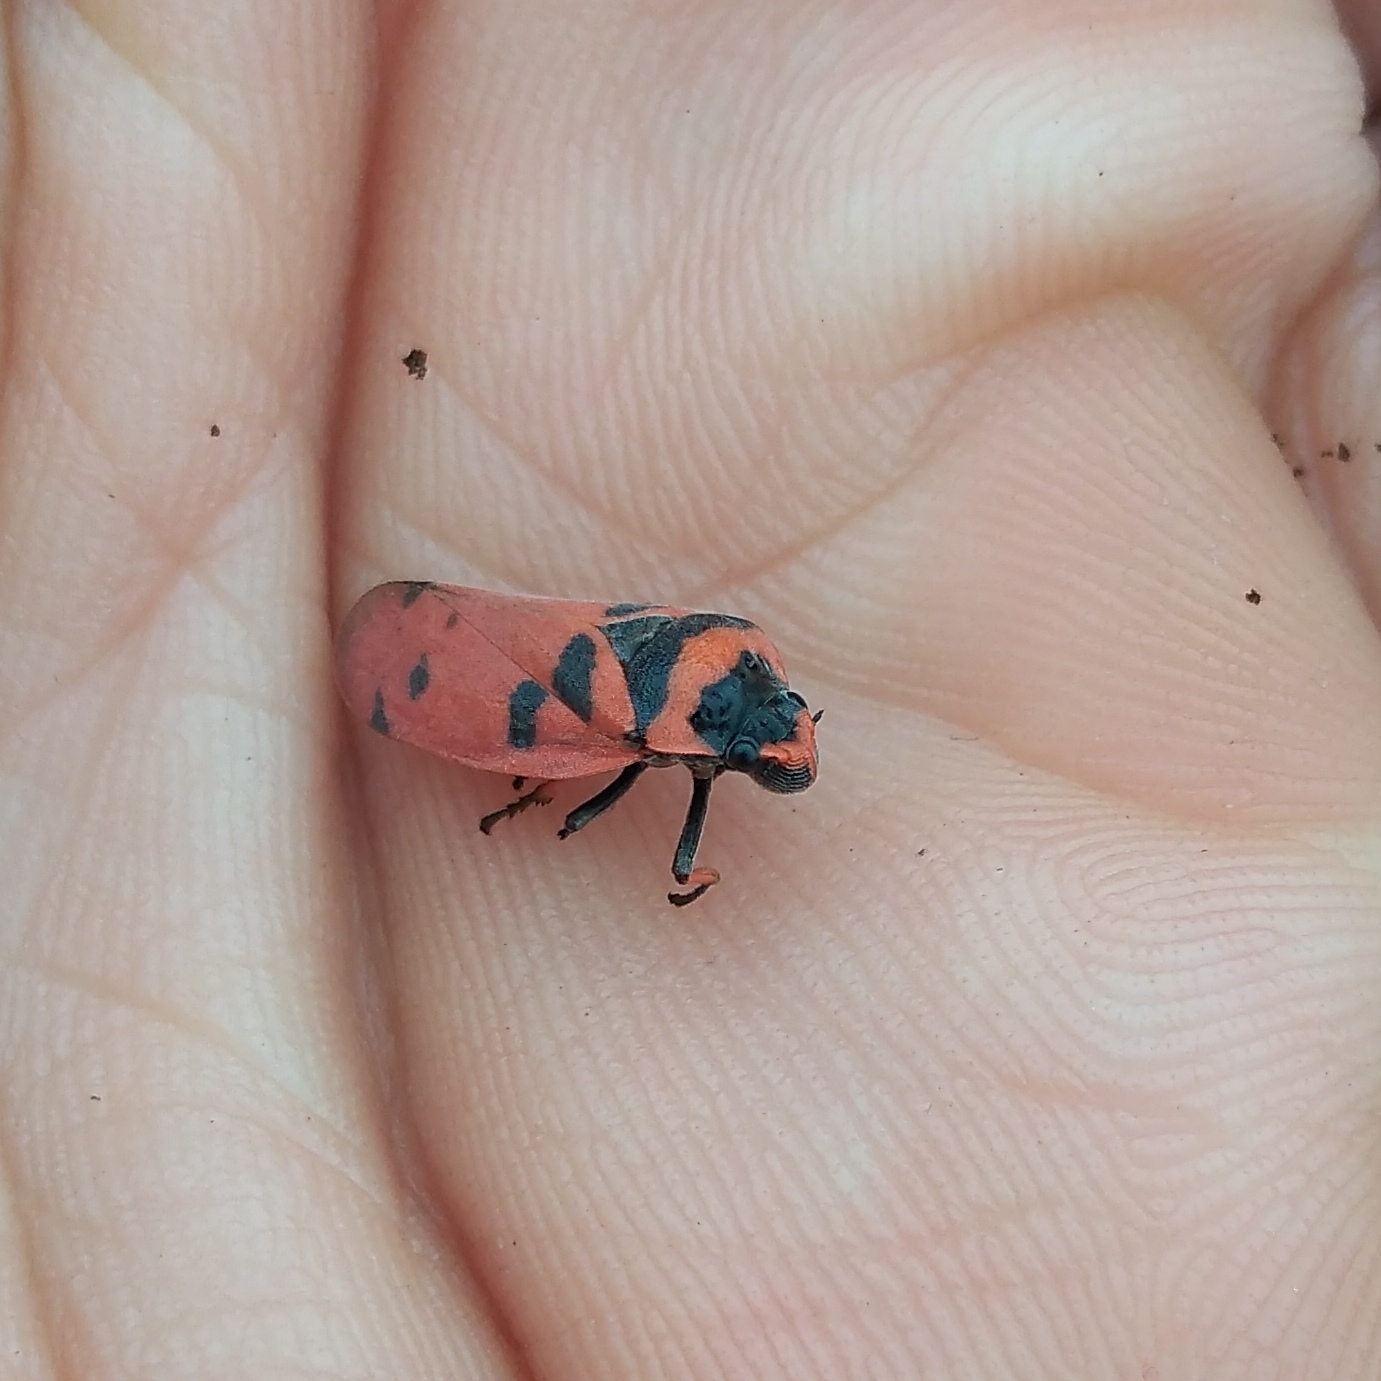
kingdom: Animalia
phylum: Arthropoda
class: Insecta
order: Hemiptera
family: Cercopidae
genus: Locris
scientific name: Locris arithmetica
